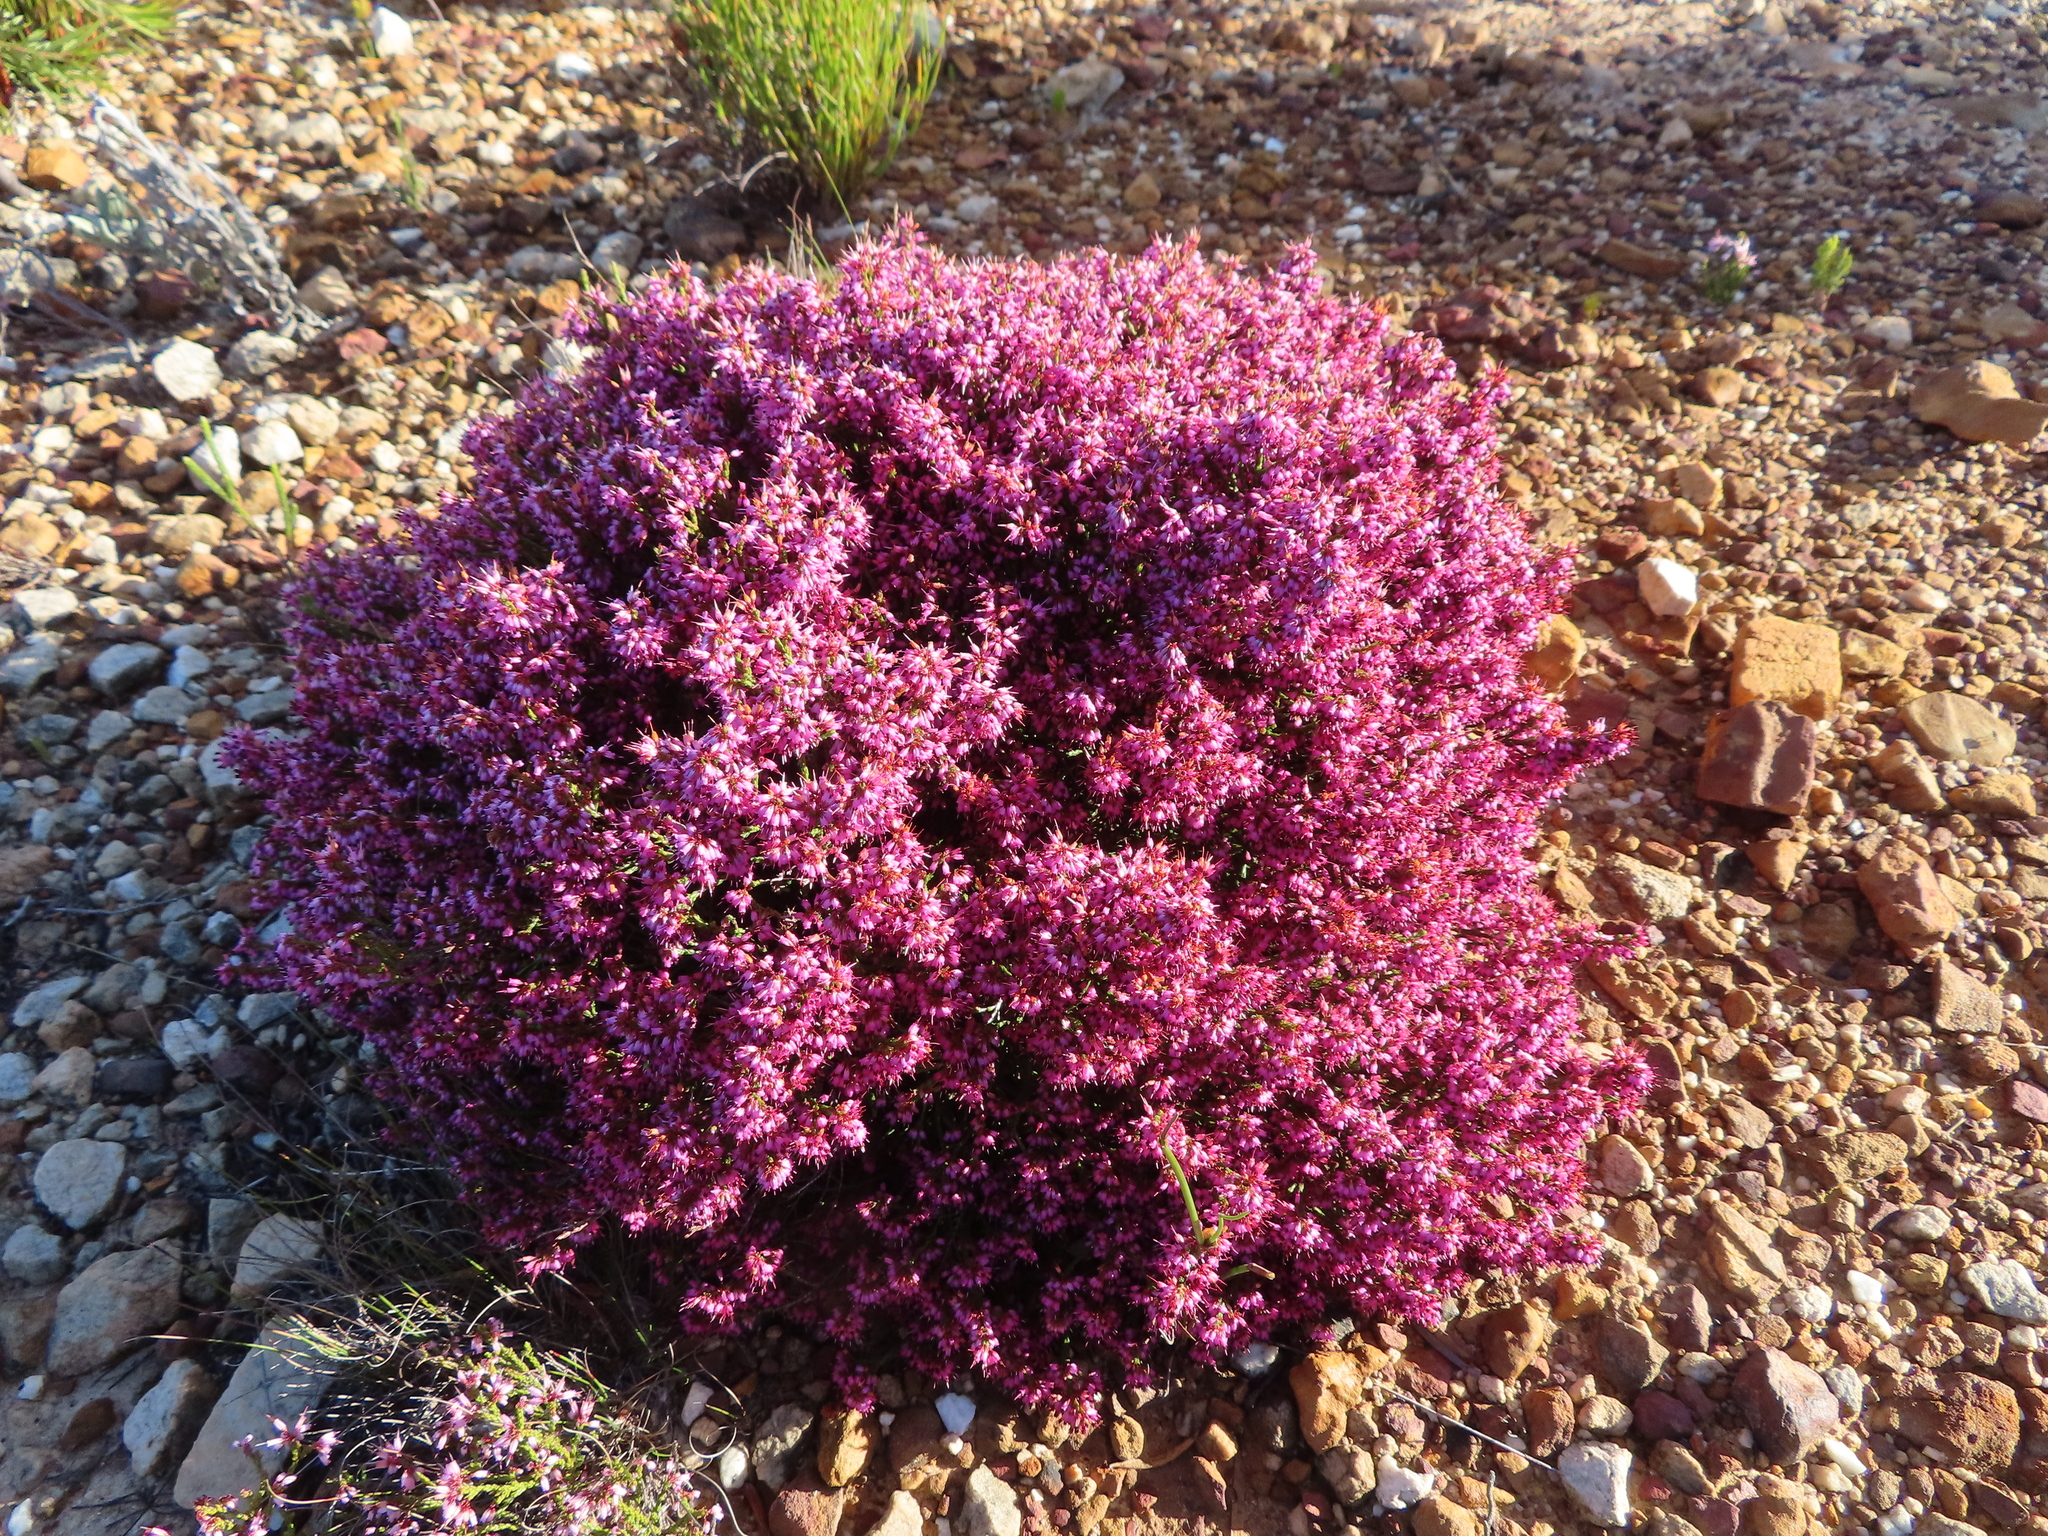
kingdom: Plantae
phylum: Tracheophyta
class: Magnoliopsida
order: Ericales
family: Ericaceae
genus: Erica
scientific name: Erica equisetifolia
